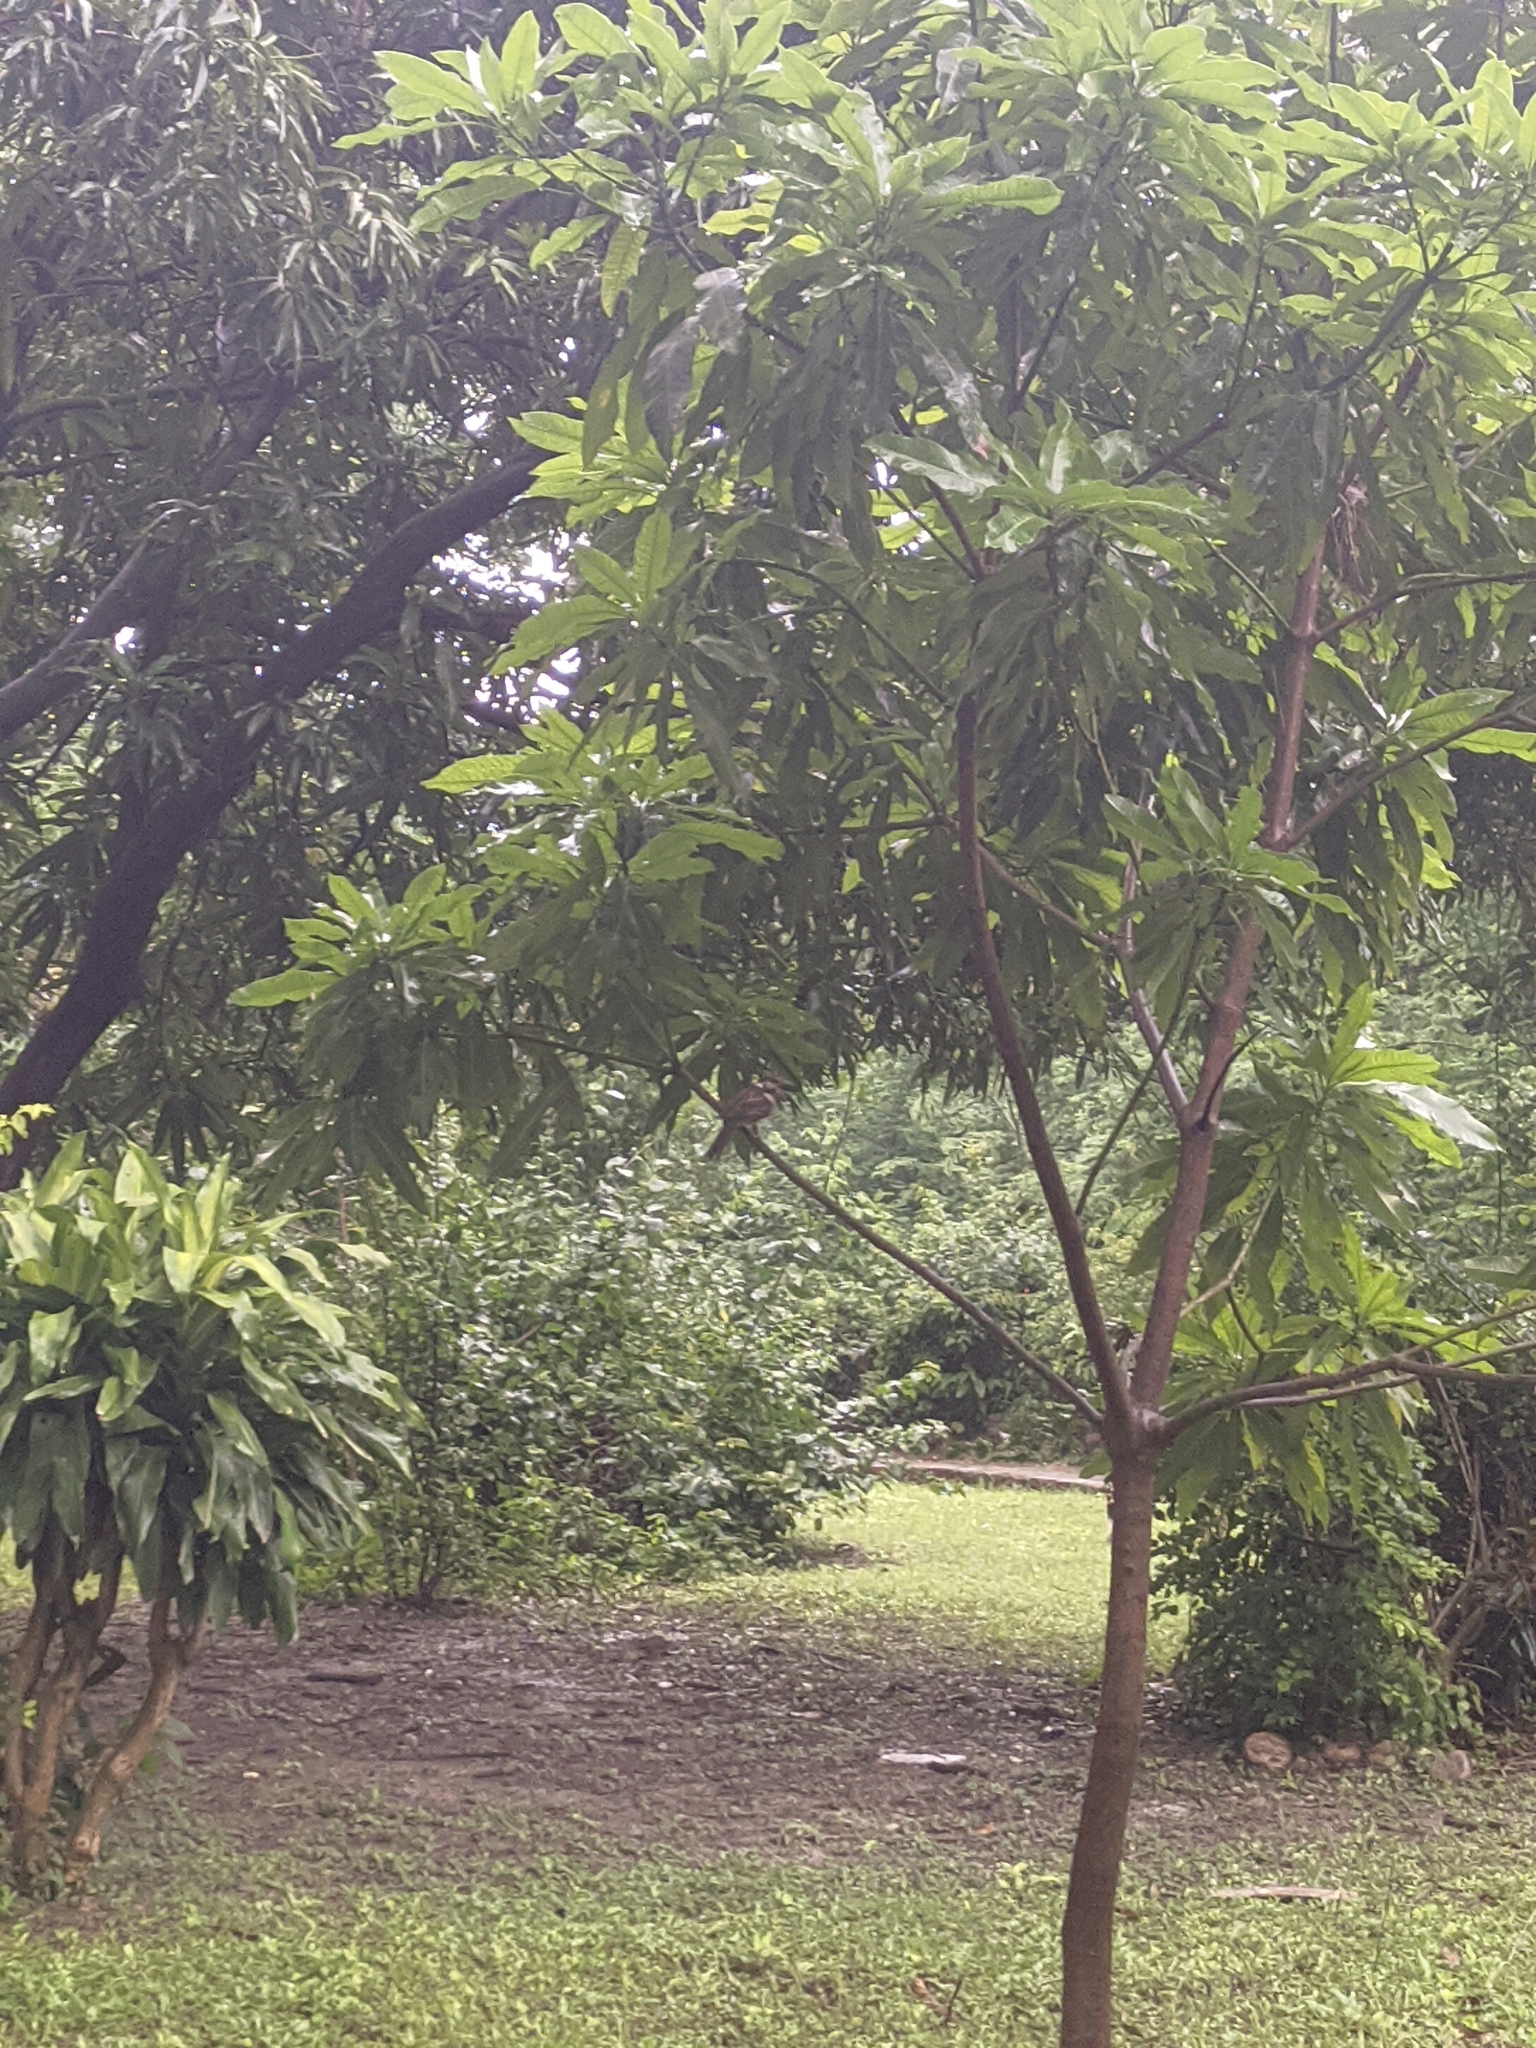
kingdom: Animalia
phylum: Chordata
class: Aves
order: Piciformes
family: Bucconidae
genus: Hypnelus
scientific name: Hypnelus ruficollis
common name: Russet-throated puffbird
